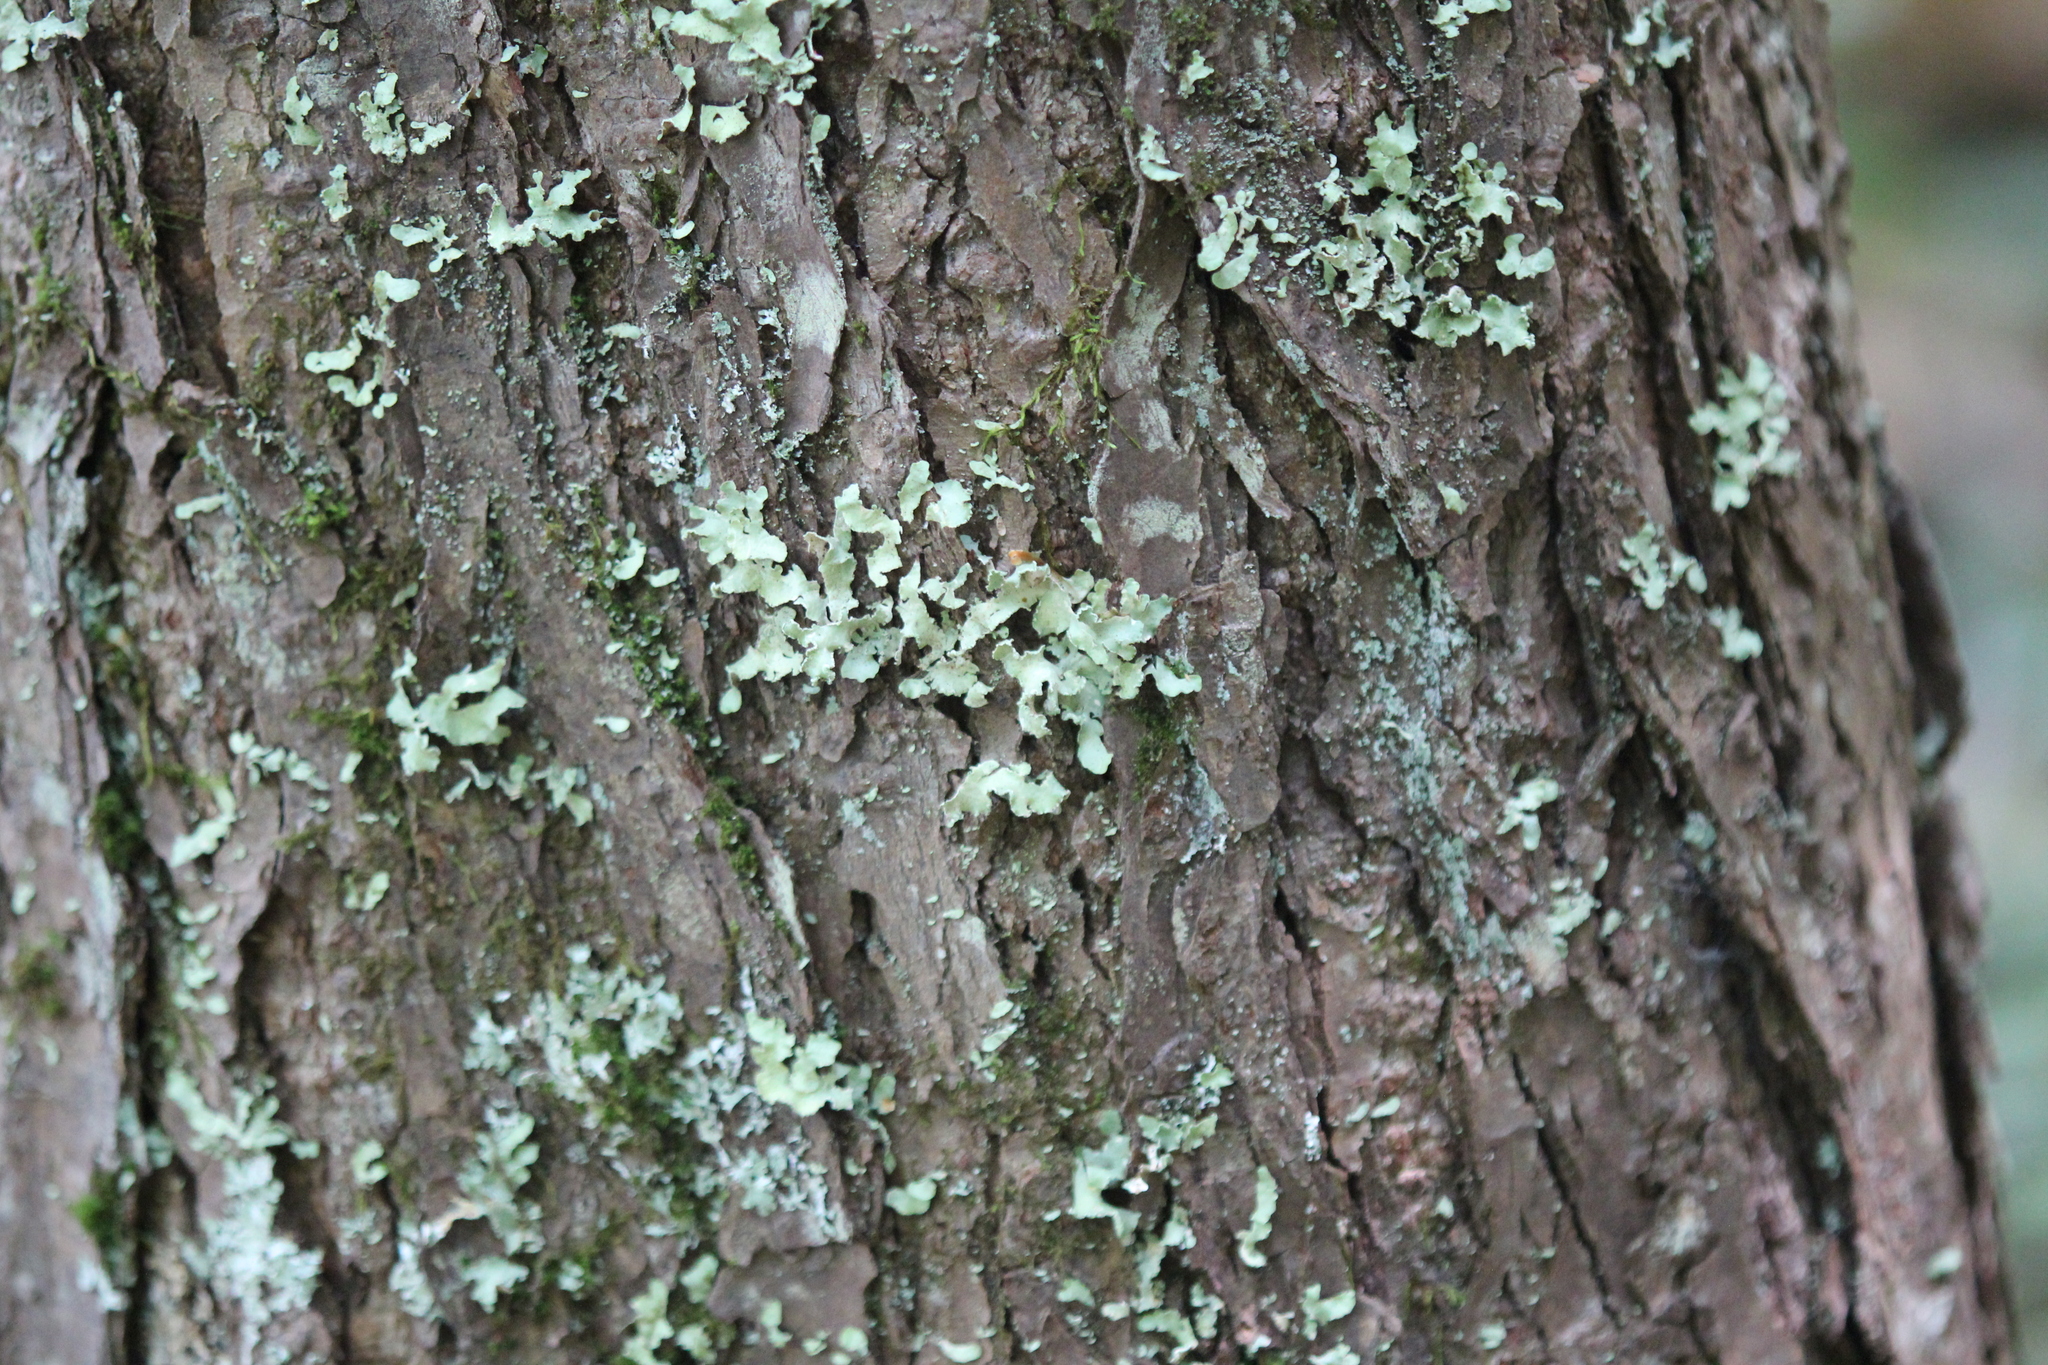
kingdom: Fungi
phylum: Ascomycota
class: Lecanoromycetes
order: Lecanorales
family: Parmeliaceae
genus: Usnocetraria
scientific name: Usnocetraria oakesiana
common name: Yellow ribbon lichen
